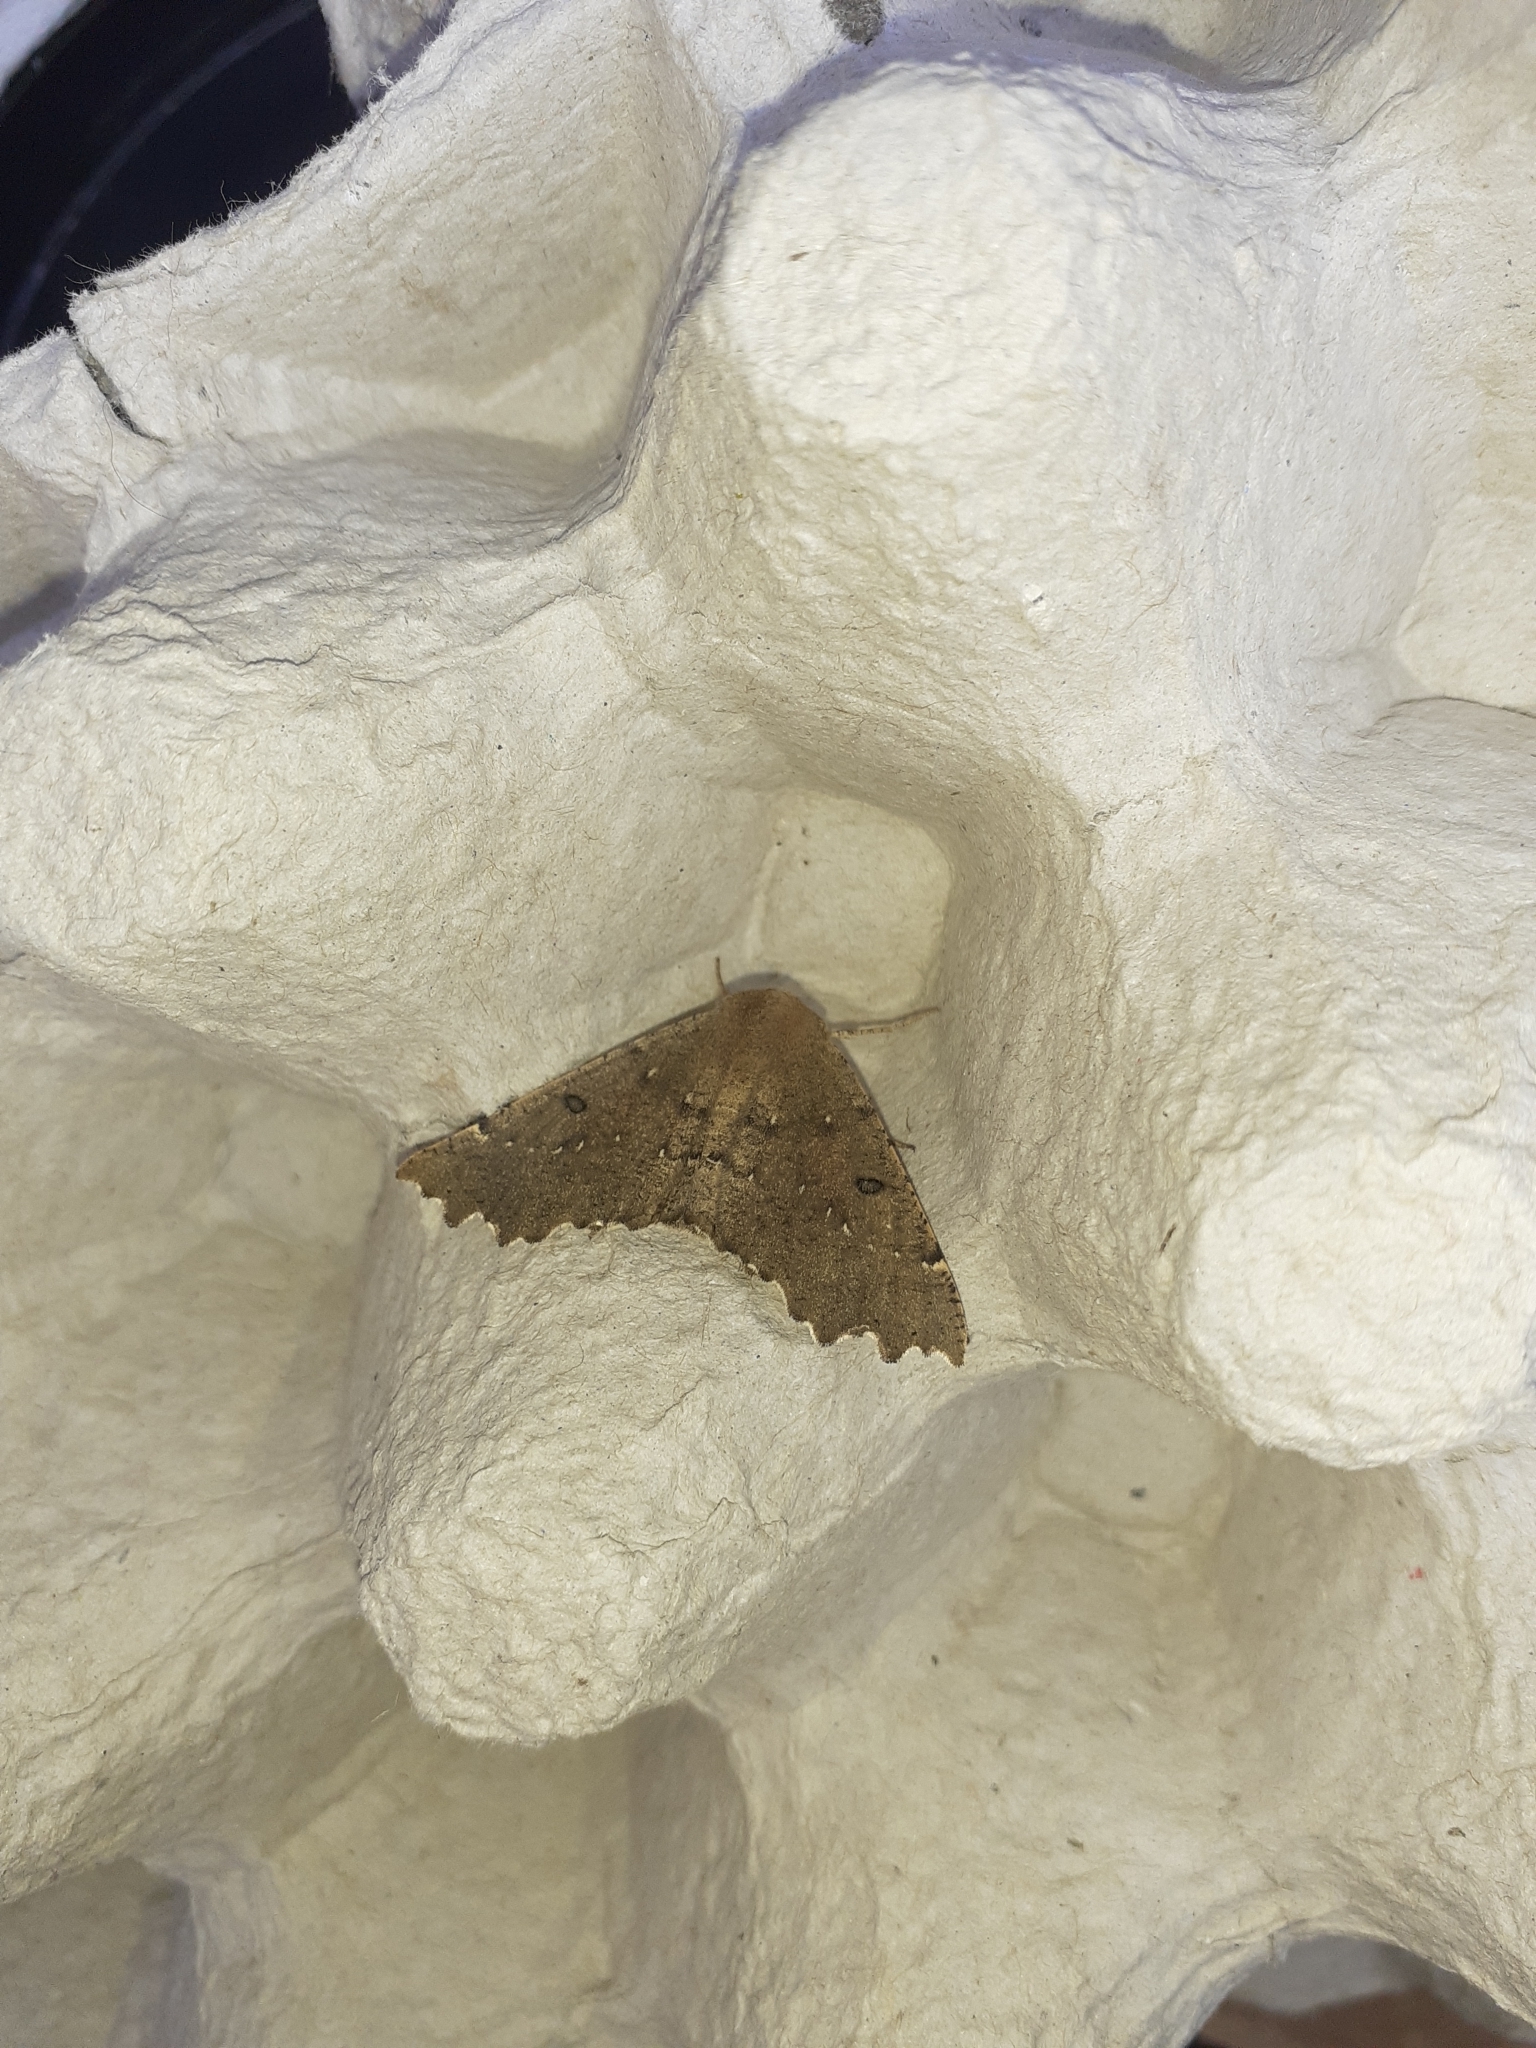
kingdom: Animalia
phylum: Arthropoda
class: Insecta
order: Lepidoptera
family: Geometridae
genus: Odontopera
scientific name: Odontopera bidentata
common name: Scalloped hazel
